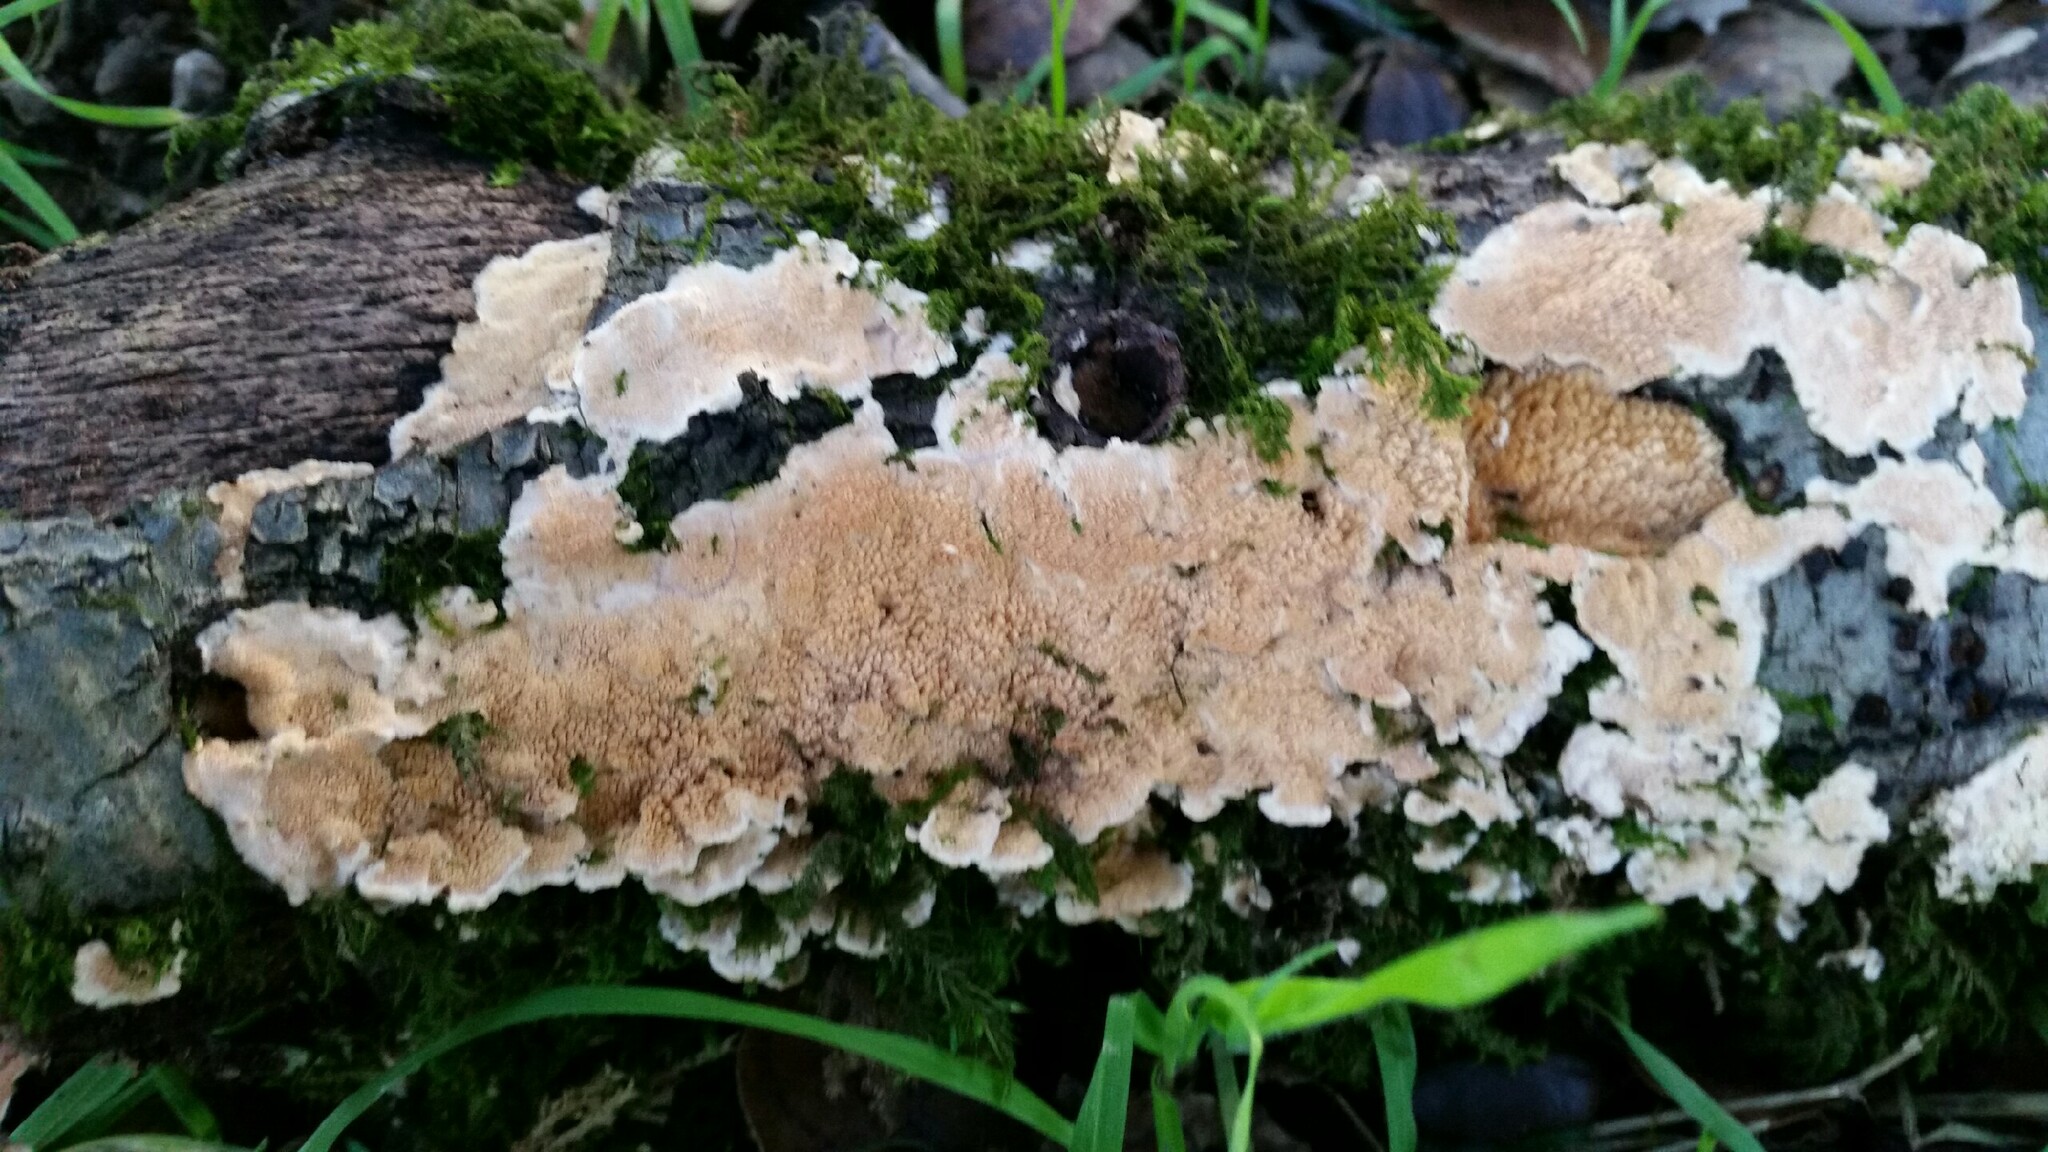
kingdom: Fungi
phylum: Basidiomycota
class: Agaricomycetes
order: Polyporales
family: Steccherinaceae
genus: Steccherinum
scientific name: Steccherinum ochraceum
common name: Ochre spreading tooth
